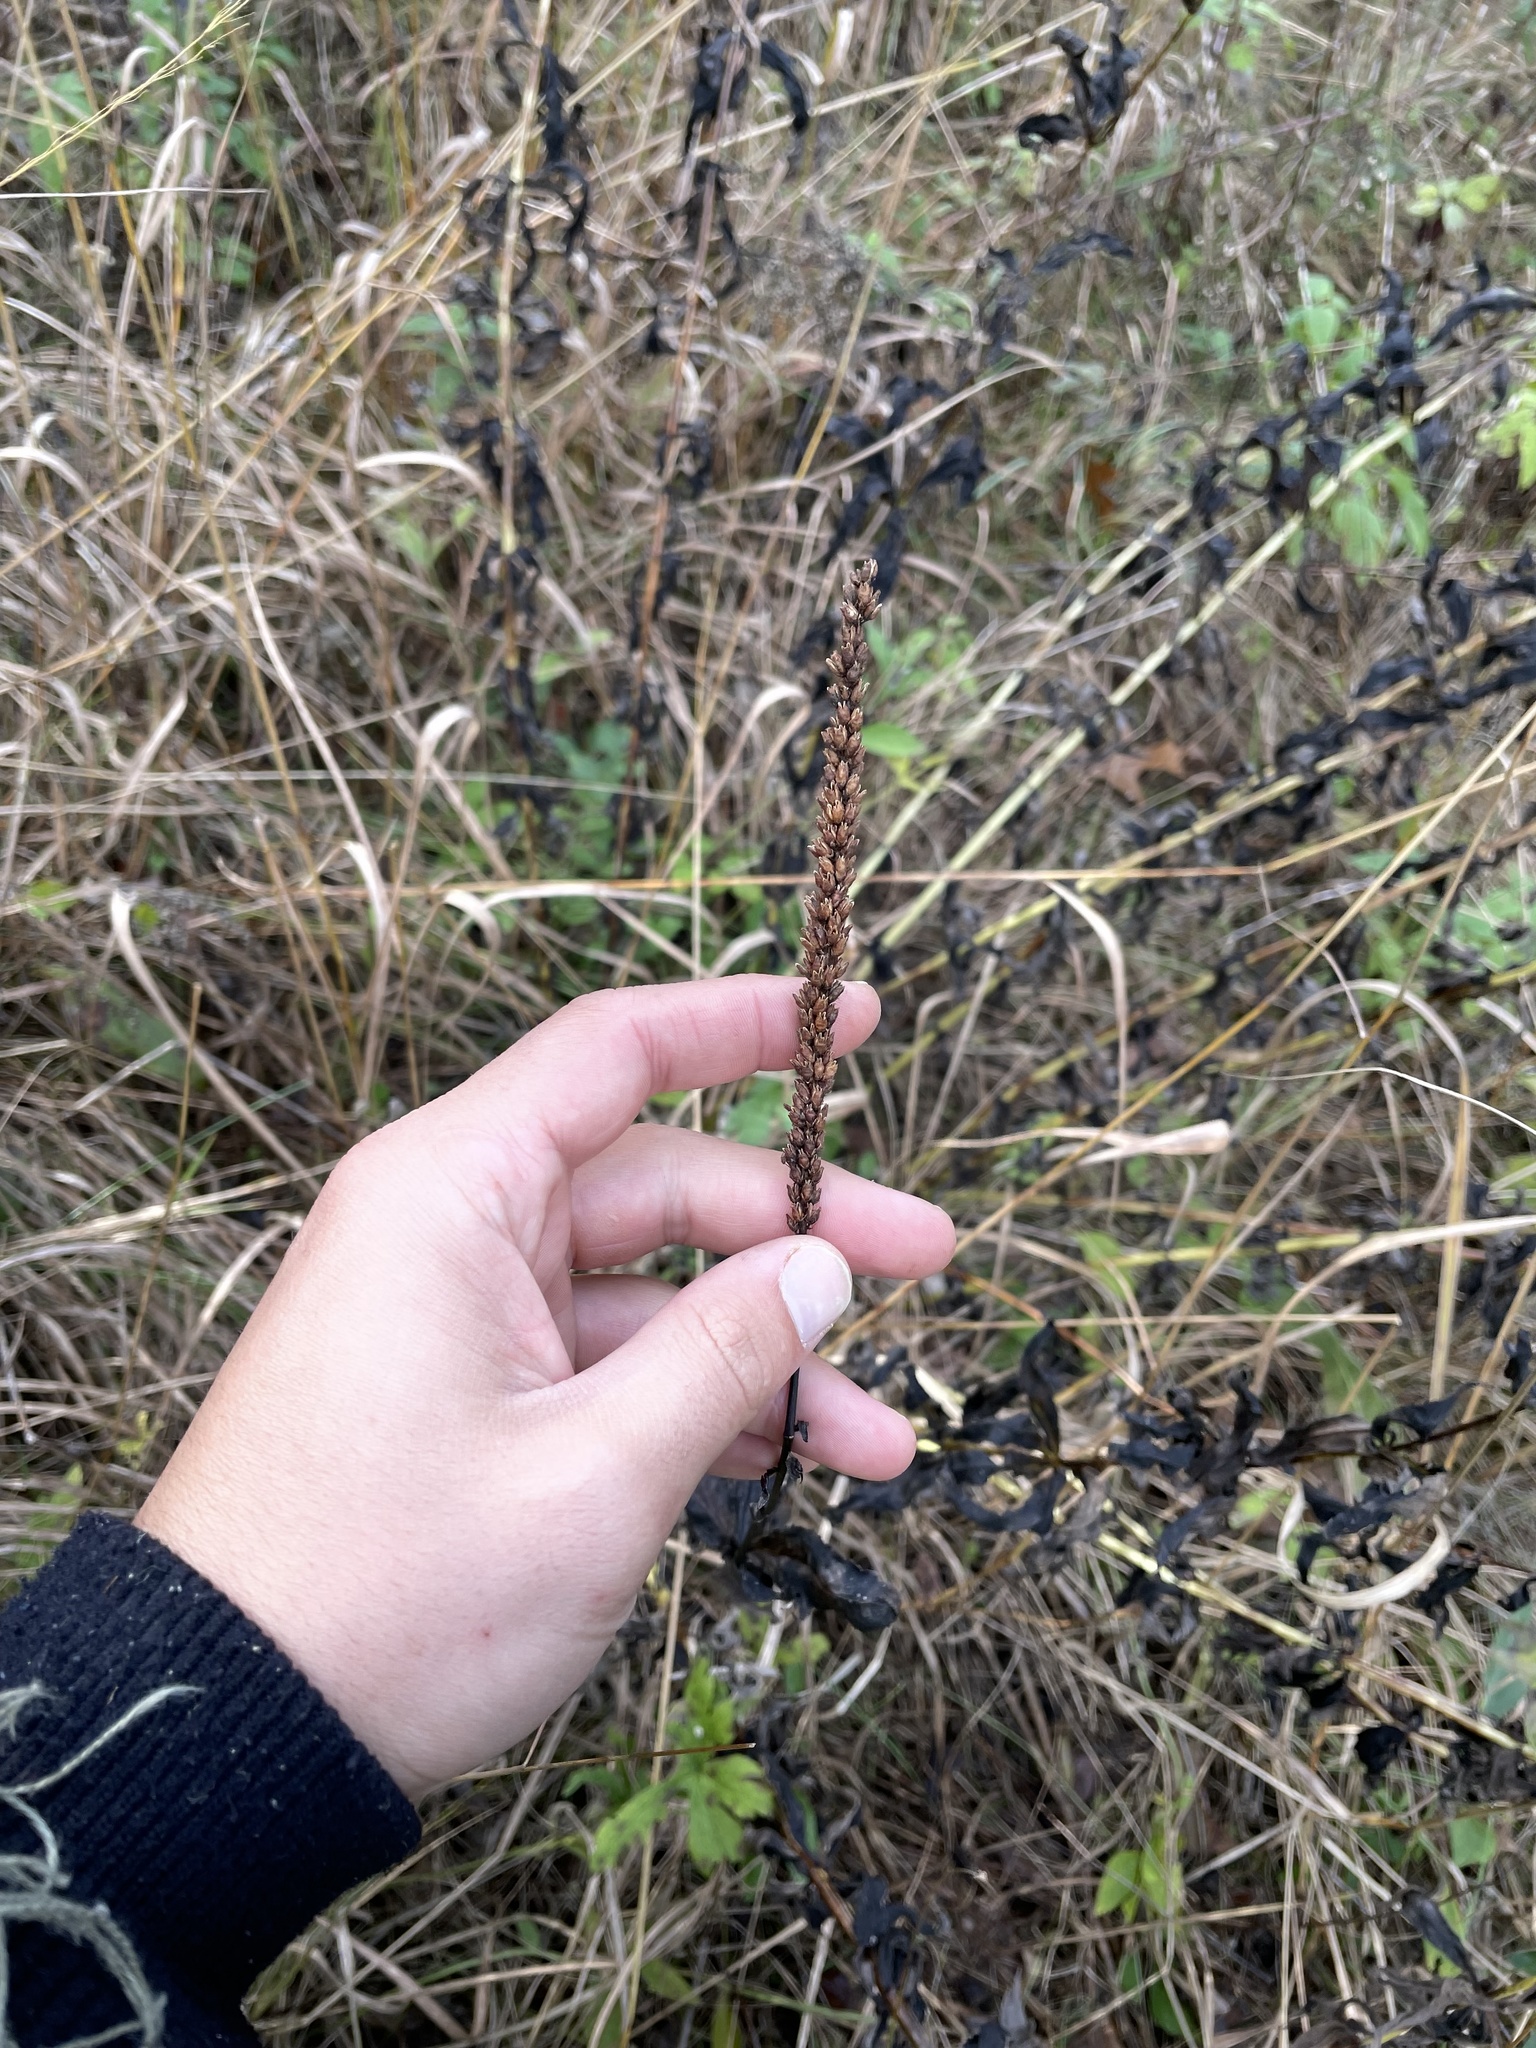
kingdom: Plantae
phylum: Tracheophyta
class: Magnoliopsida
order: Lamiales
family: Plantaginaceae
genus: Veronicastrum
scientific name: Veronicastrum virginicum
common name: Blackroot
